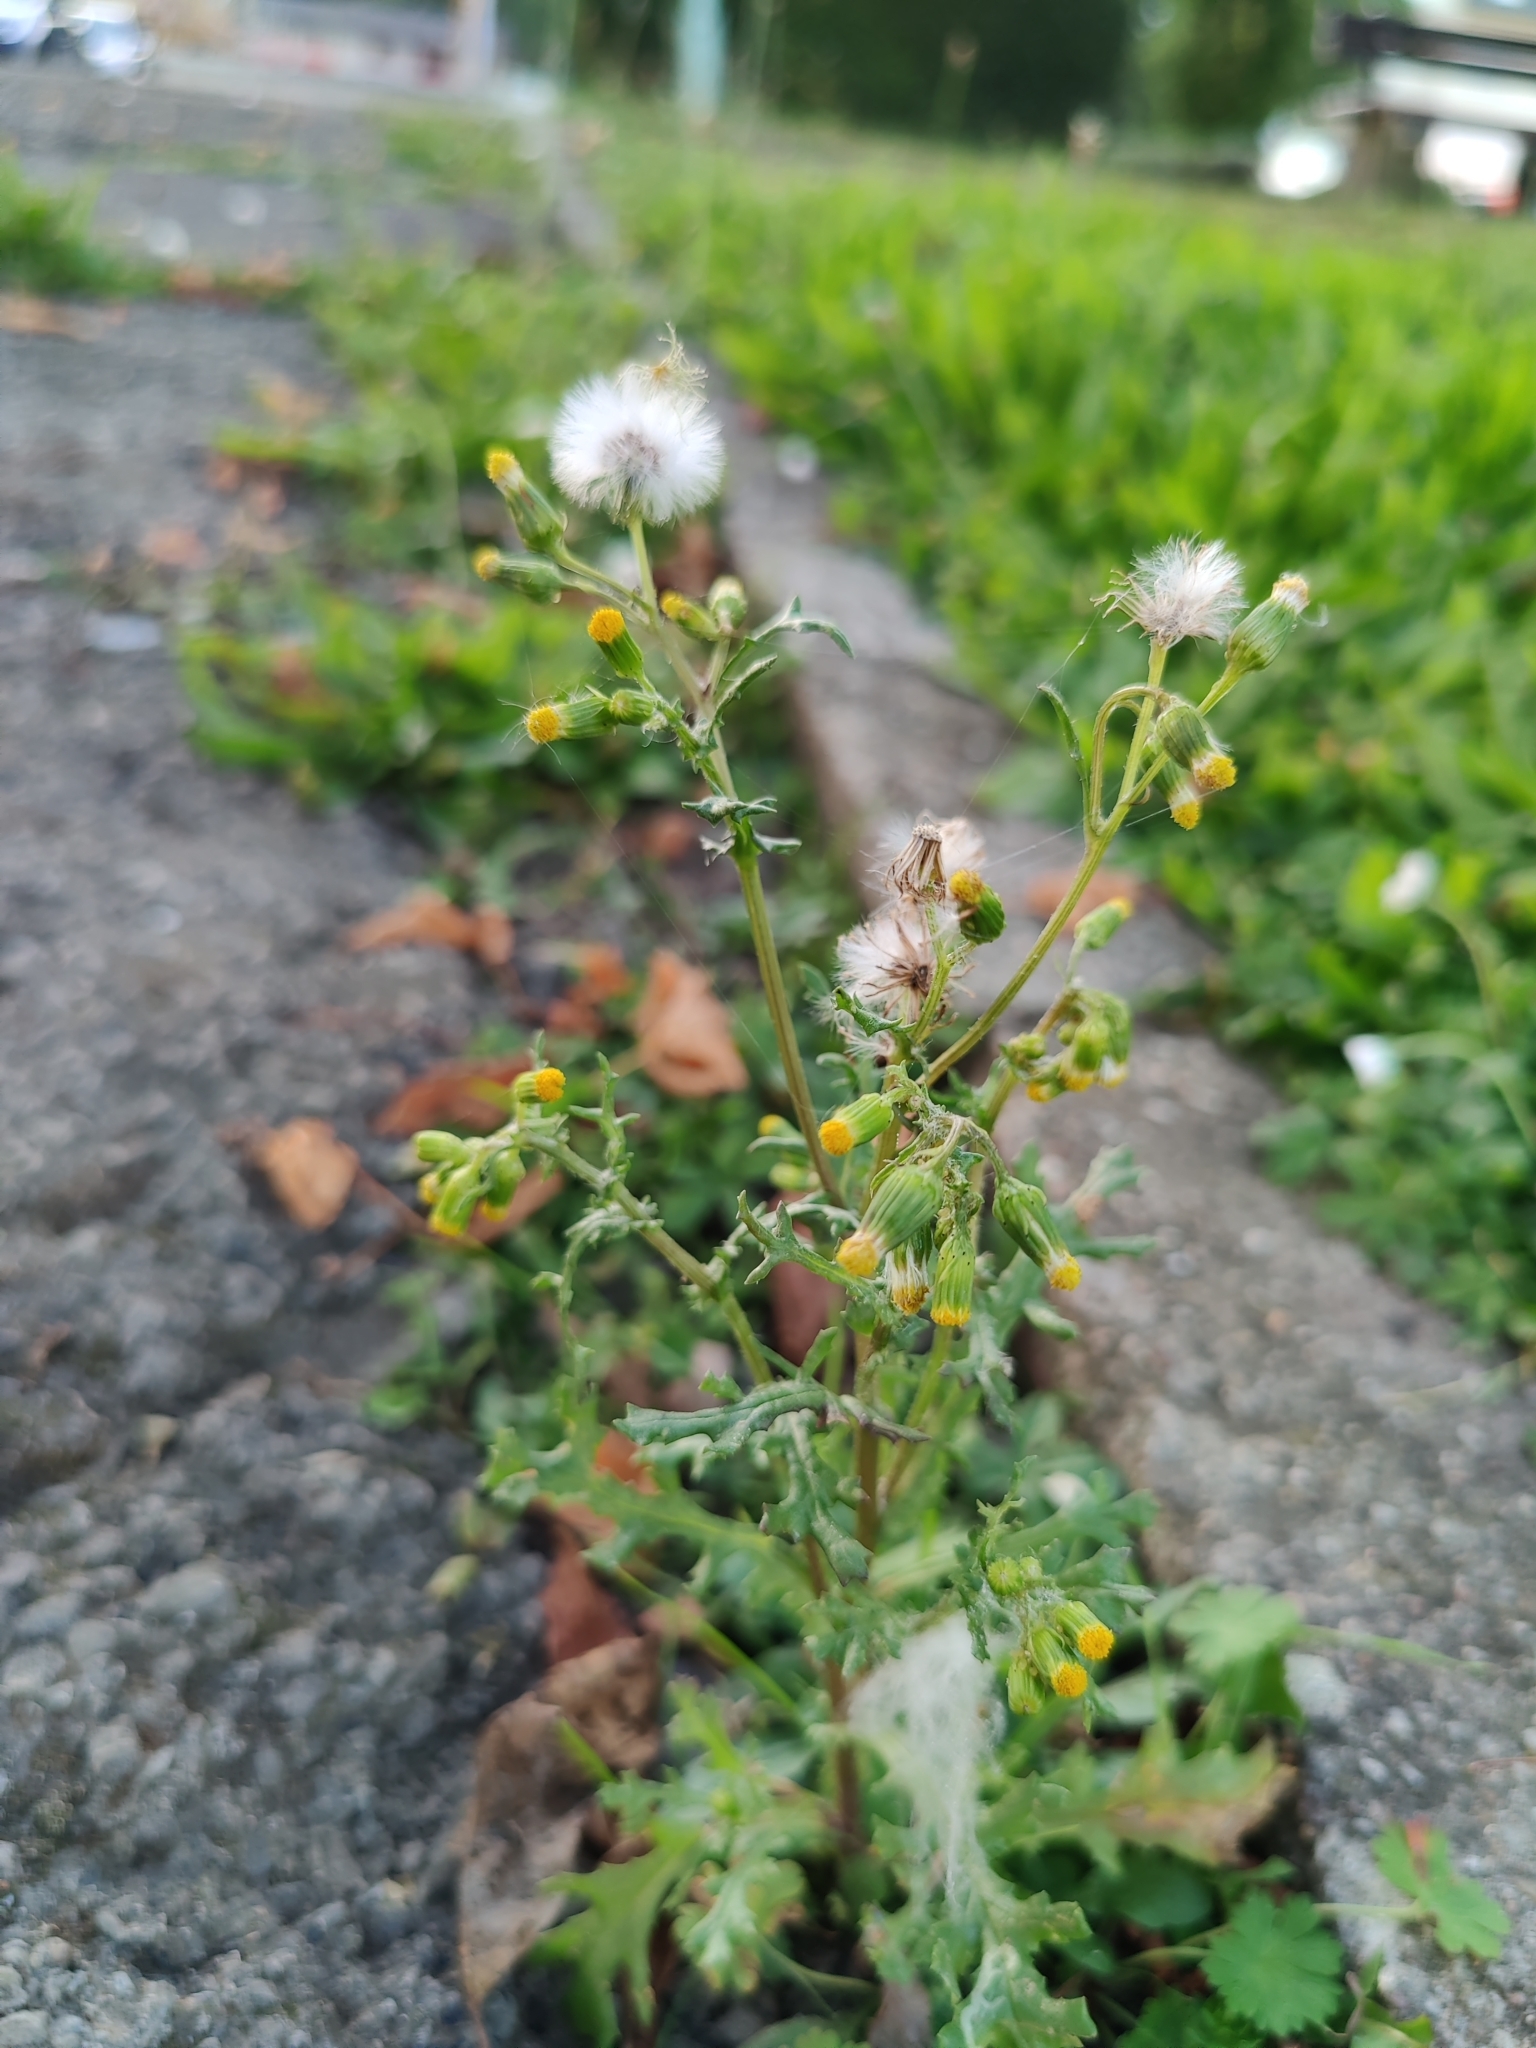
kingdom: Plantae
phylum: Tracheophyta
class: Magnoliopsida
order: Asterales
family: Asteraceae
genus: Senecio
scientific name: Senecio vulgaris
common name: Old-man-in-the-spring
